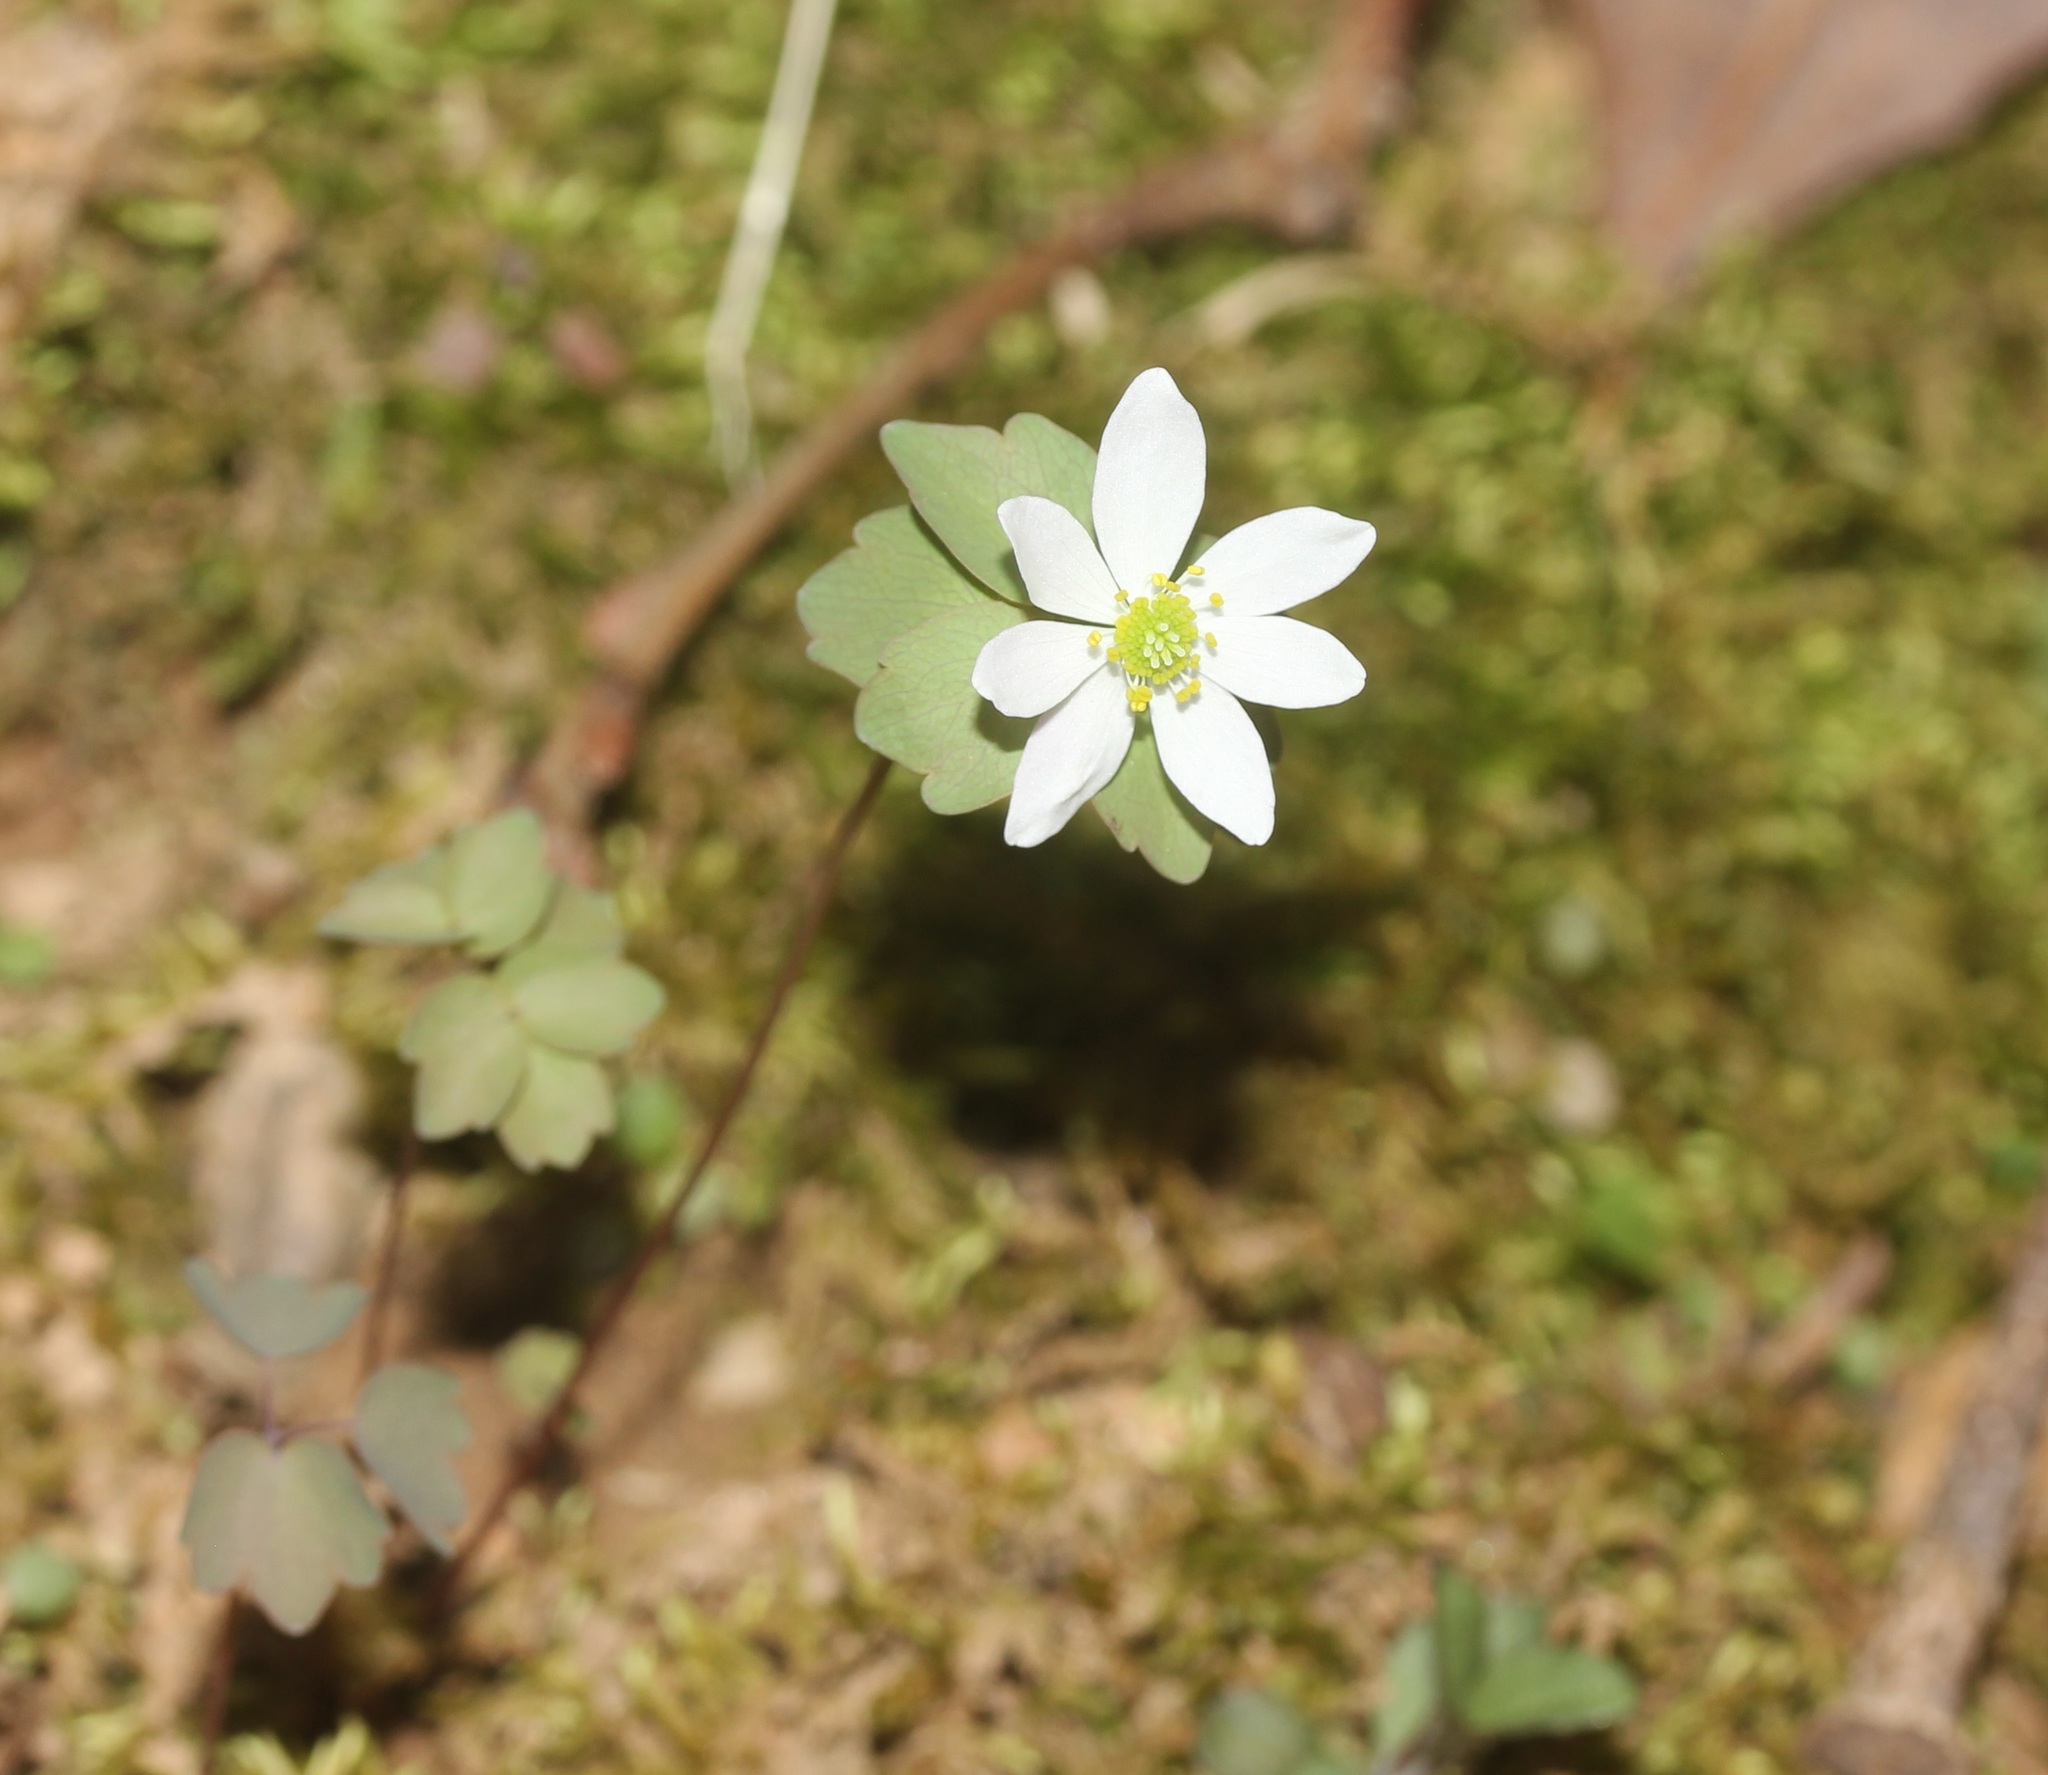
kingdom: Plantae
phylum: Tracheophyta
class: Magnoliopsida
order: Ranunculales
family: Ranunculaceae
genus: Thalictrum
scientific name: Thalictrum thalictroides
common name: Rue-anemone
